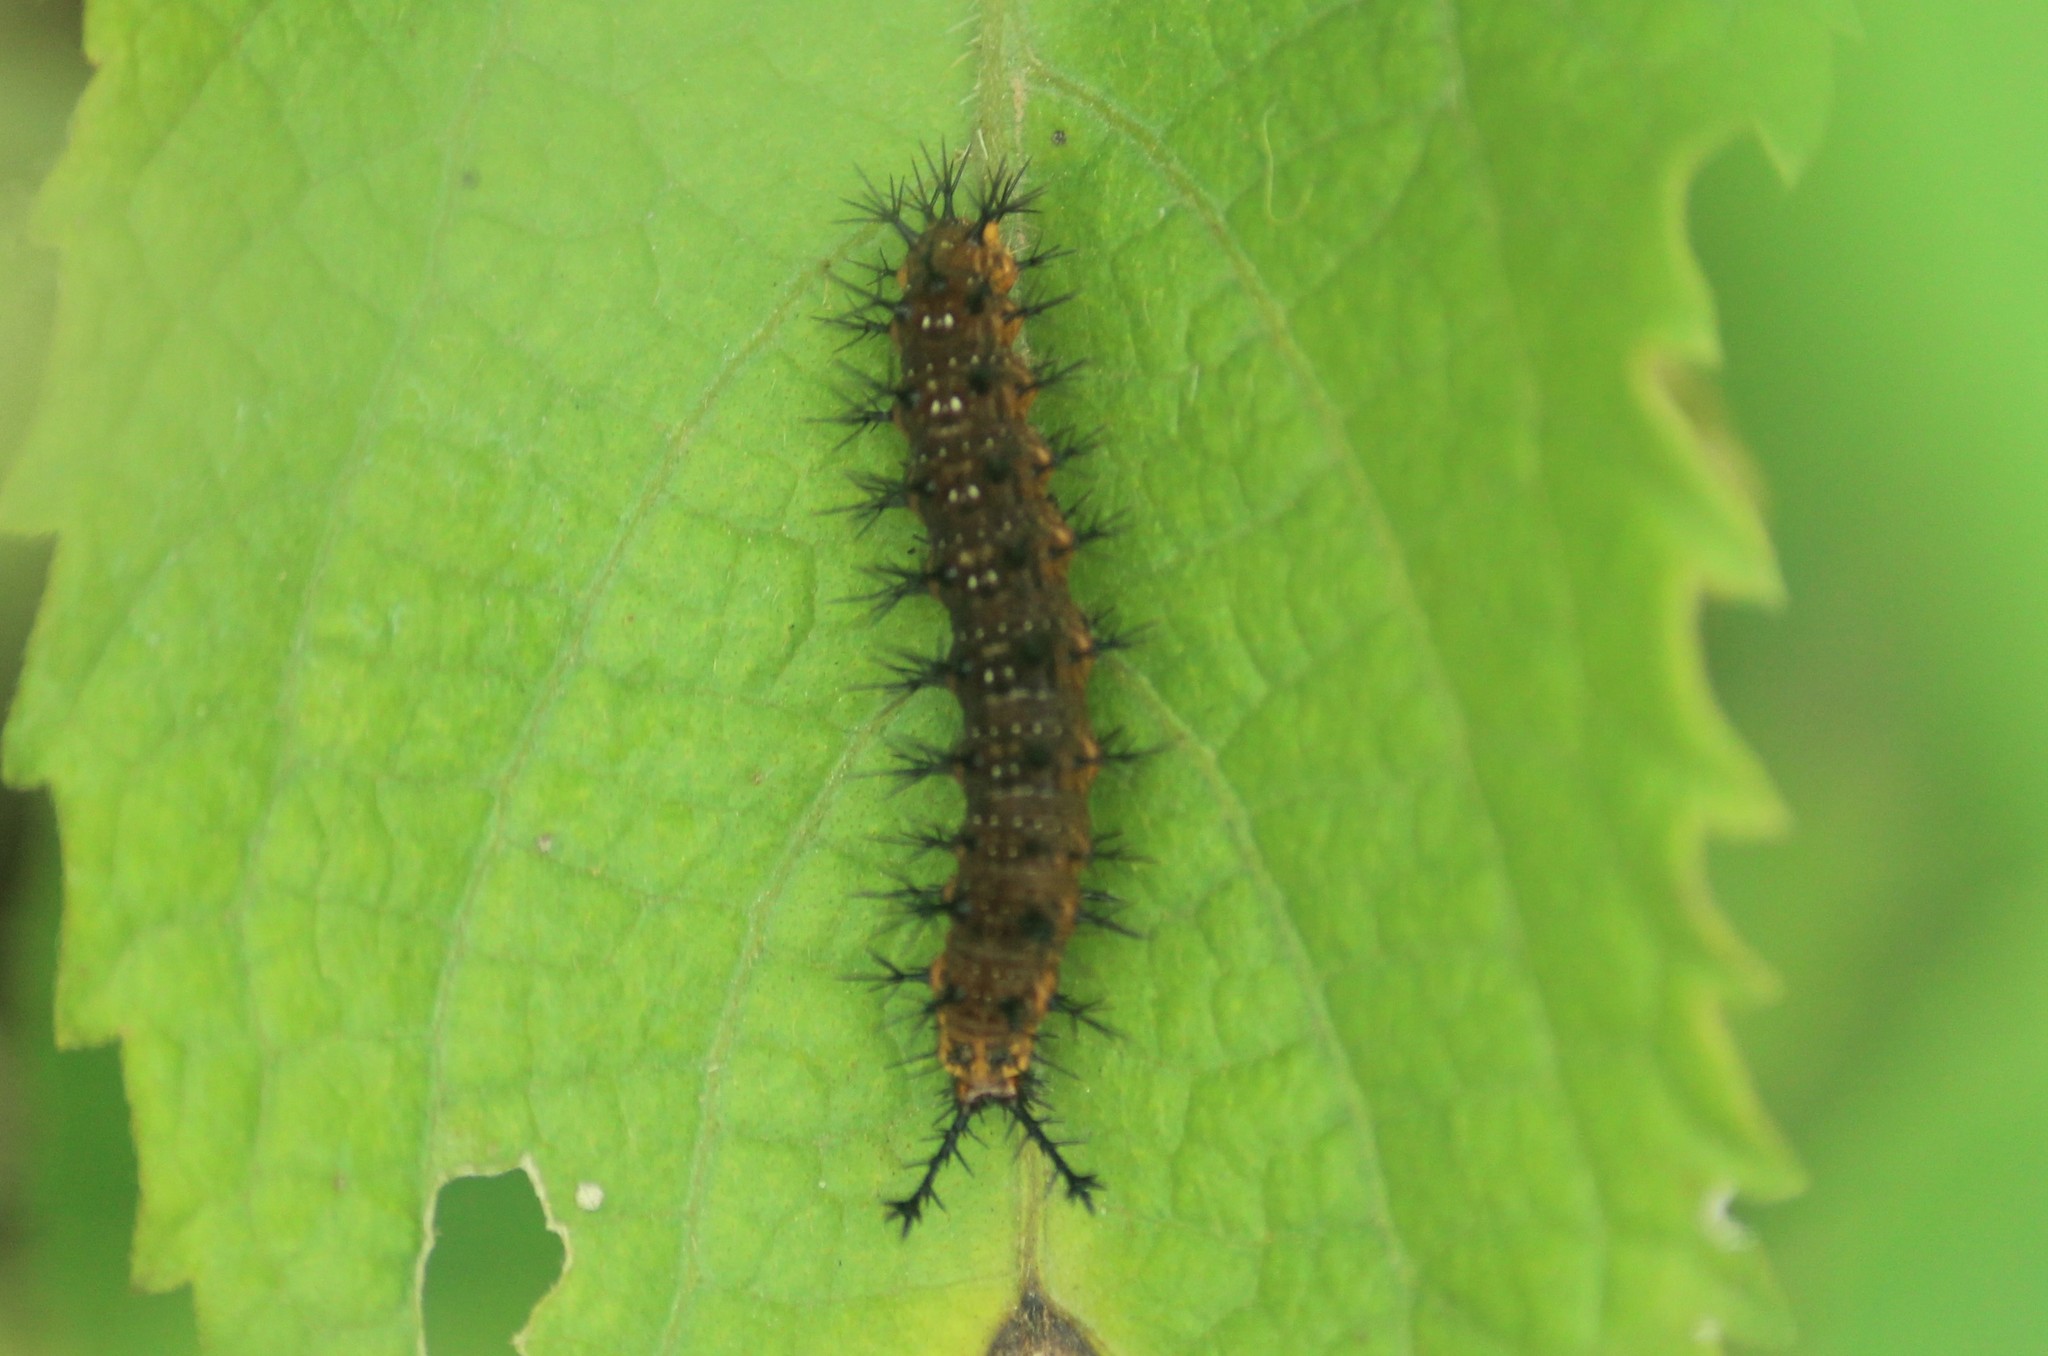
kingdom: Animalia
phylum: Arthropoda
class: Insecta
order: Lepidoptera
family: Nymphalidae
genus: Ariadne
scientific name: Ariadne ariadne
